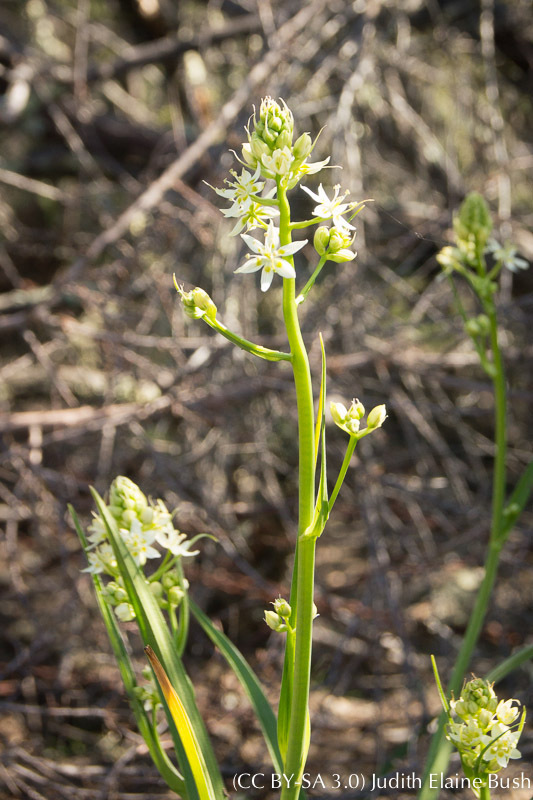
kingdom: Plantae
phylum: Tracheophyta
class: Liliopsida
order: Liliales
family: Melanthiaceae
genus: Toxicoscordion
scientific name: Toxicoscordion fremontii
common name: Fremont's death camas
